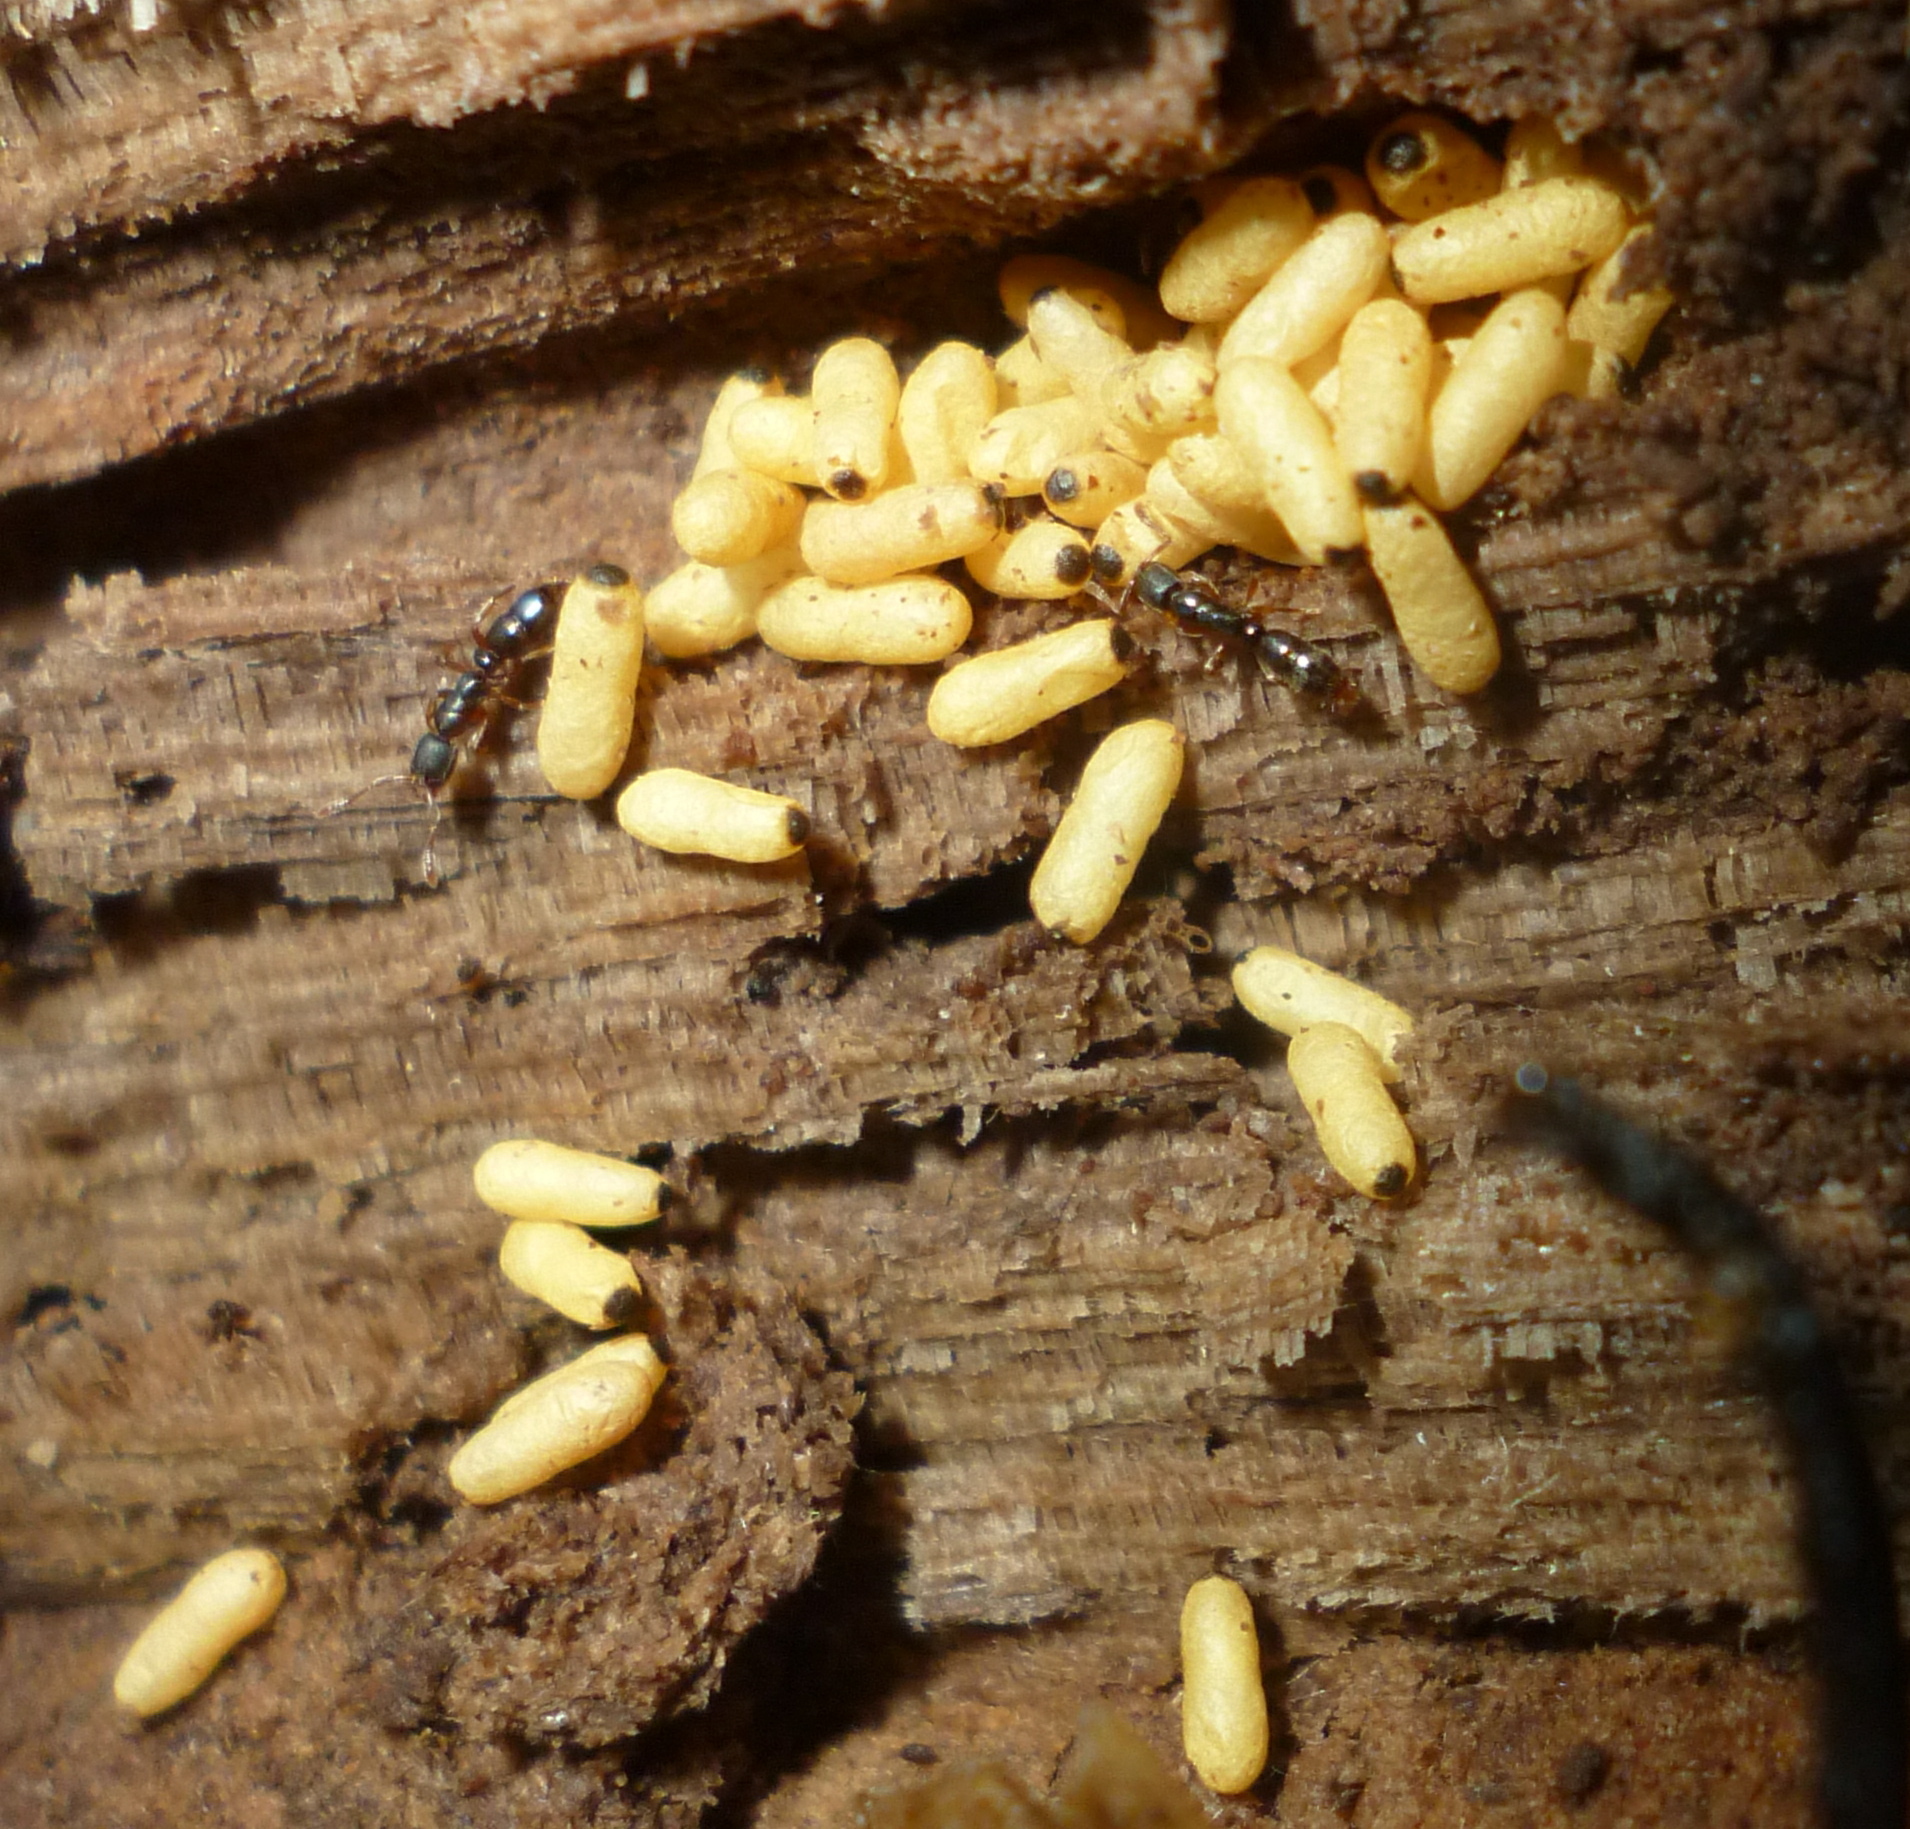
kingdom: Animalia
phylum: Arthropoda
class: Insecta
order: Hymenoptera
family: Formicidae
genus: Ponera
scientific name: Ponera pennsylvanica
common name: Pennsylvania ponera
